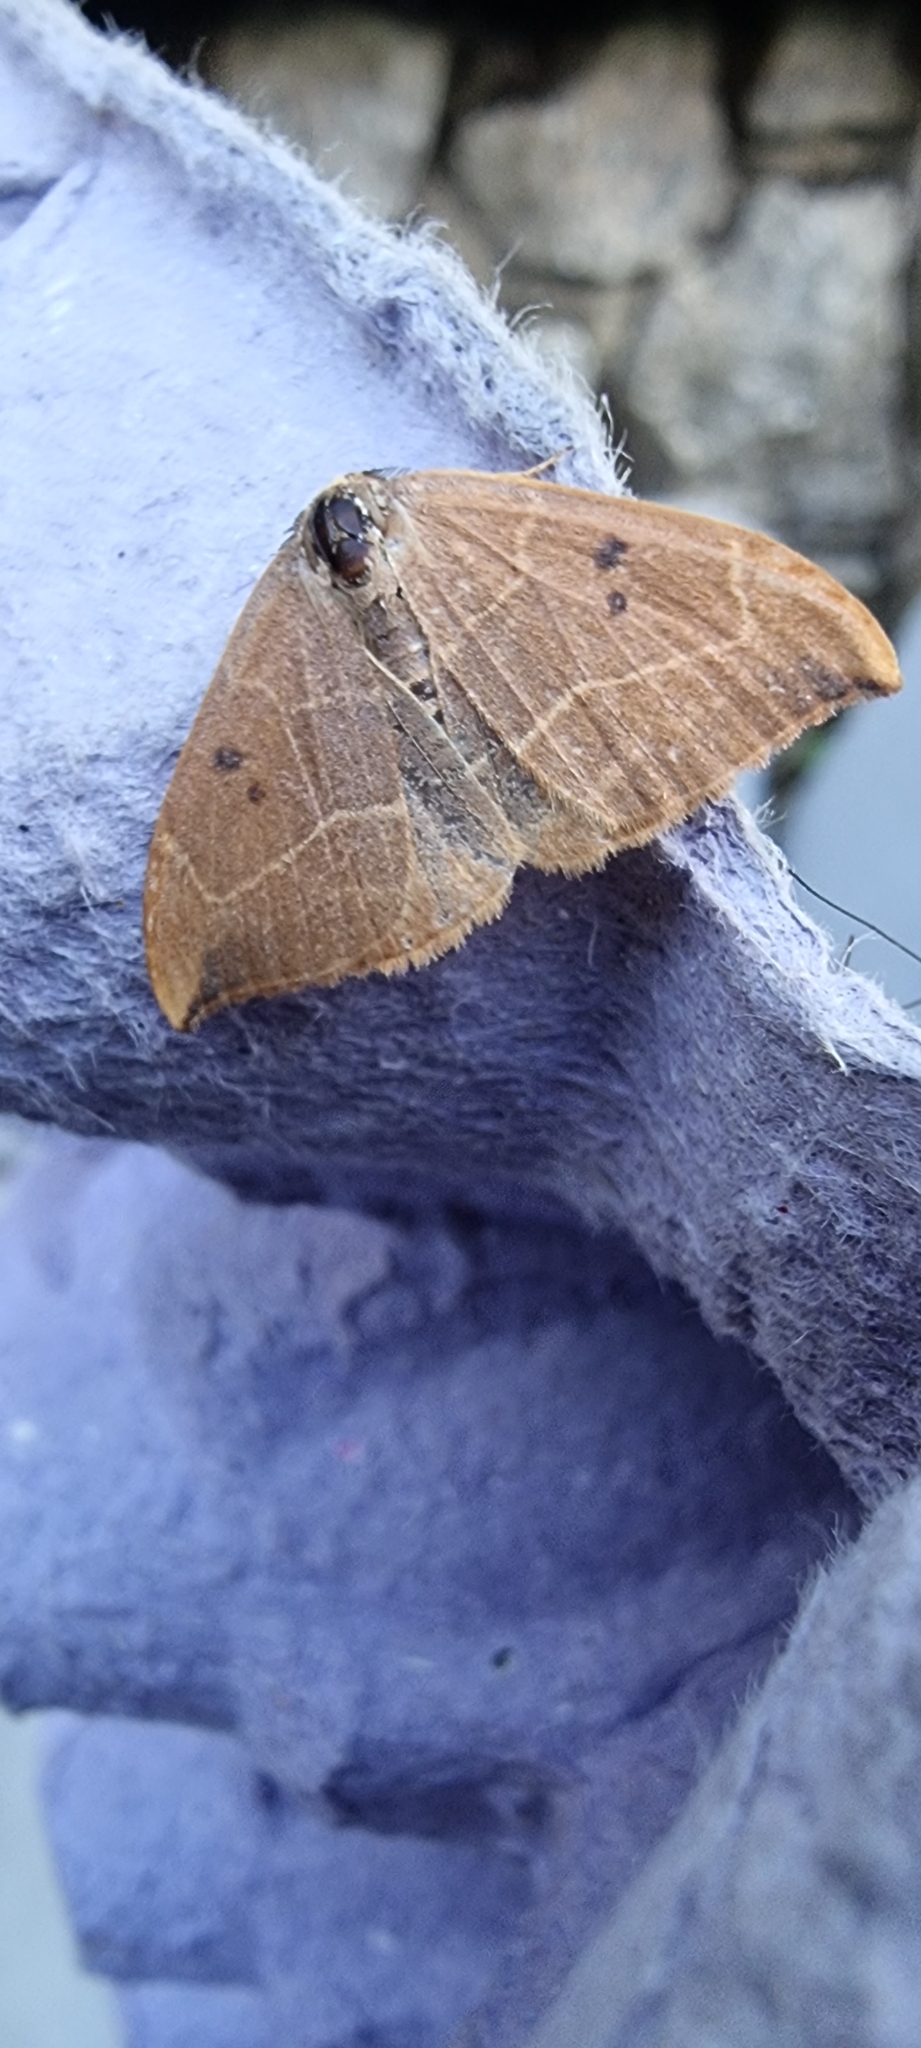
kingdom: Animalia
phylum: Arthropoda
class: Insecta
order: Lepidoptera
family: Drepanidae
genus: Watsonalla
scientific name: Watsonalla binaria
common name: Oak hook-tip
